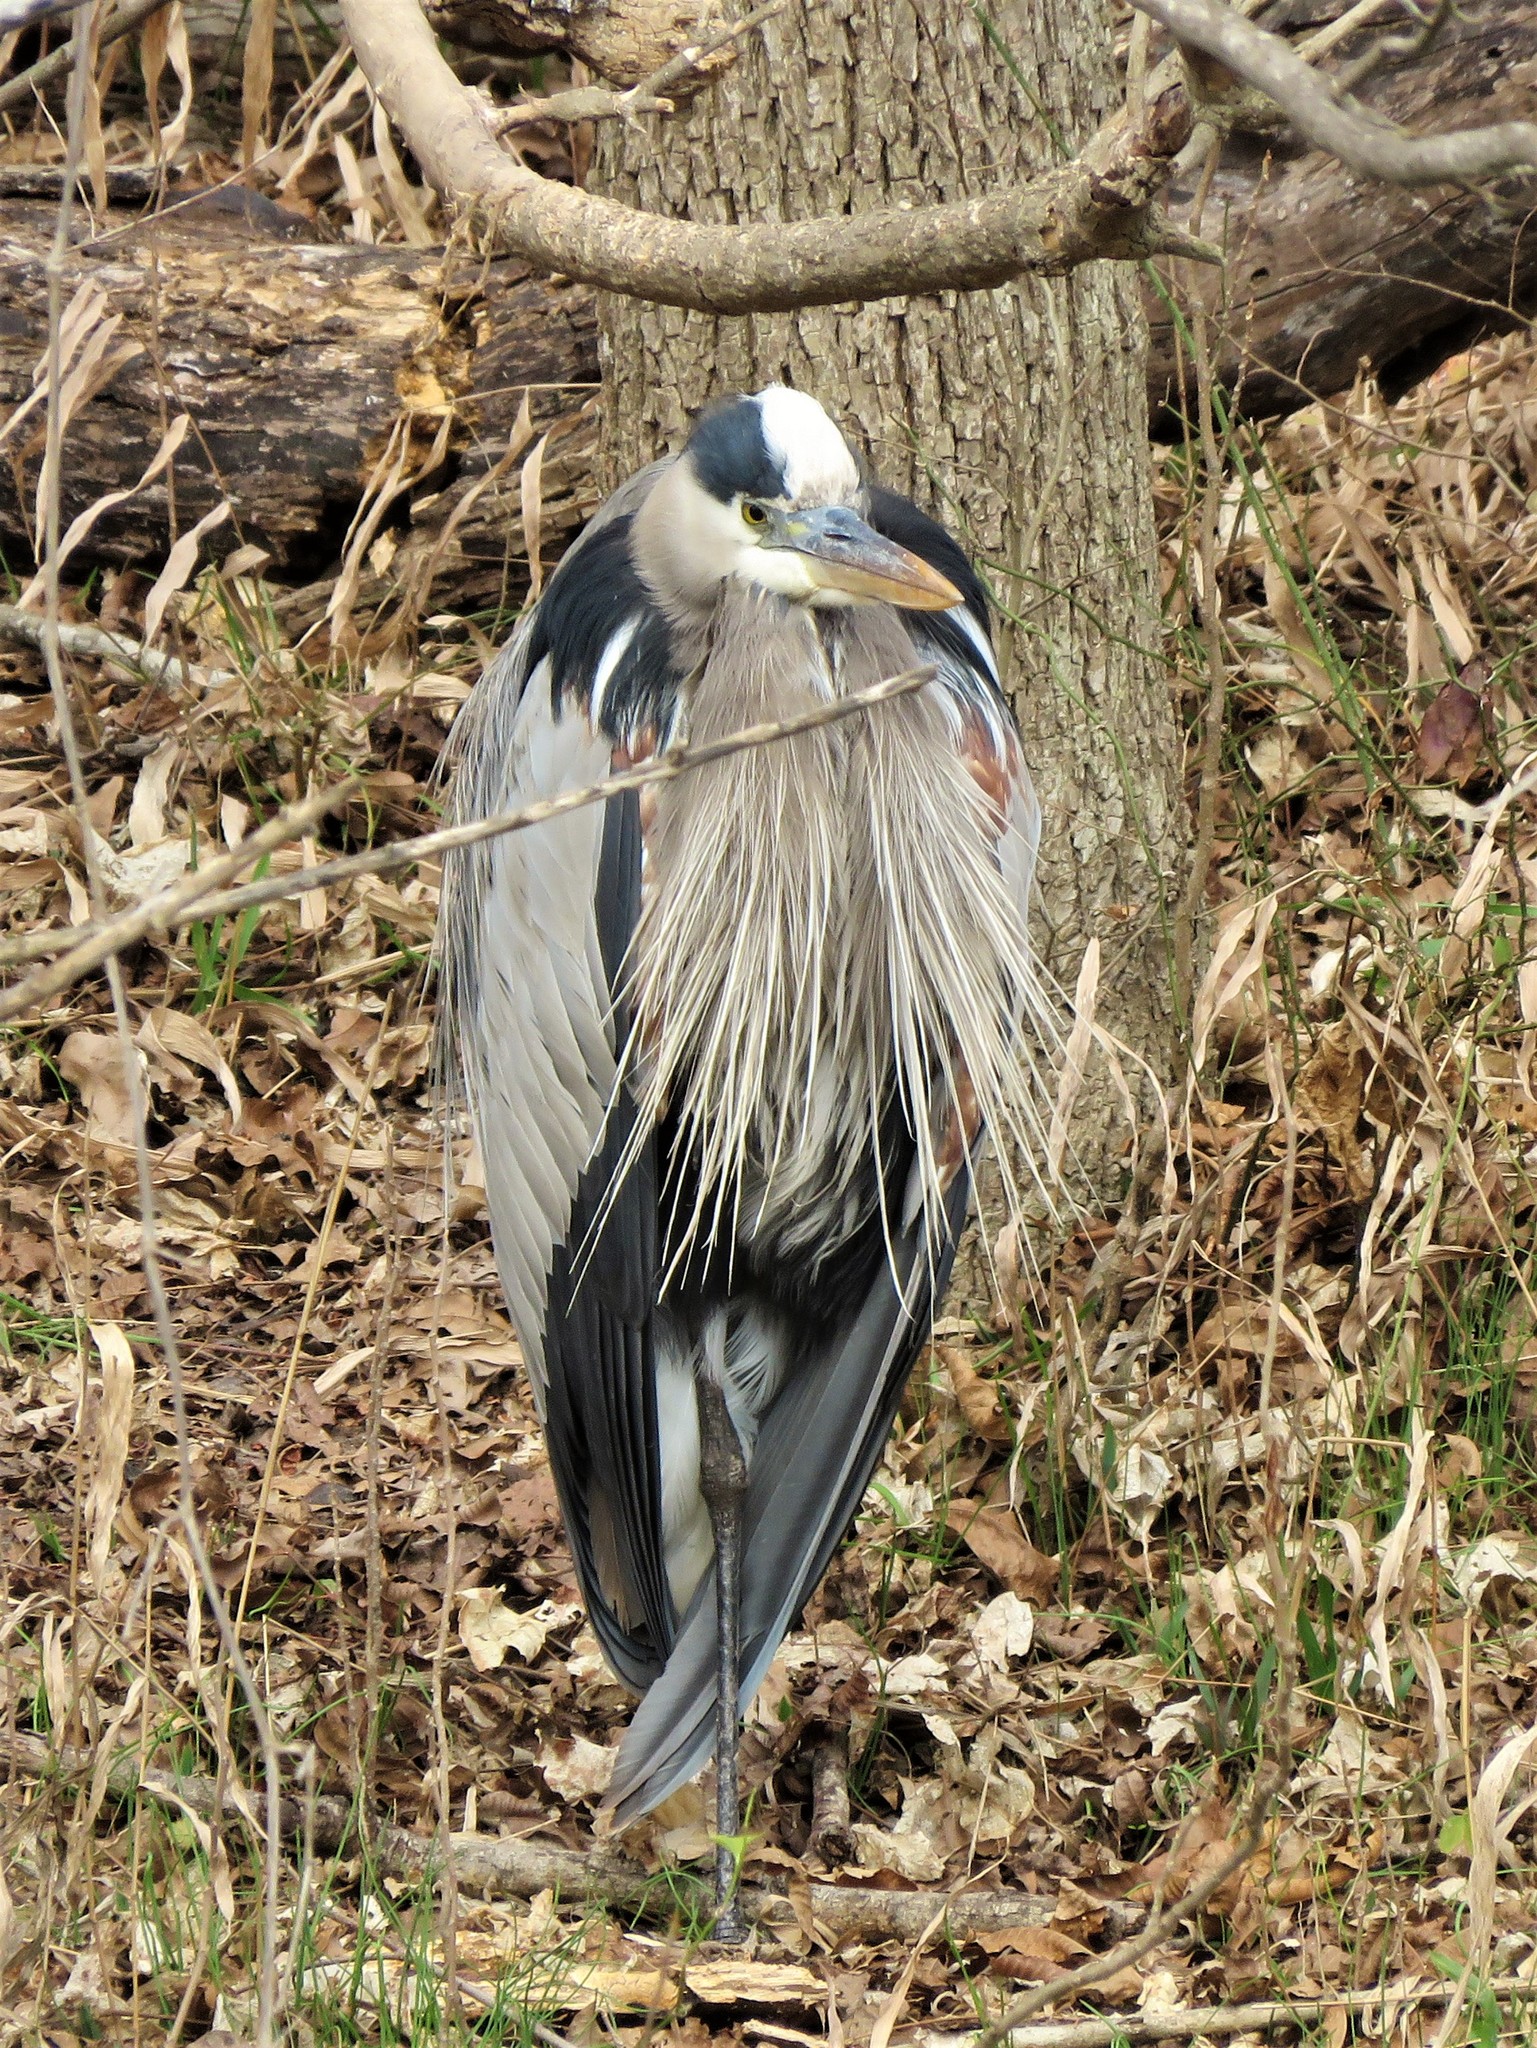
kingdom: Animalia
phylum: Chordata
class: Aves
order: Pelecaniformes
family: Ardeidae
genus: Ardea
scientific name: Ardea herodias
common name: Great blue heron
